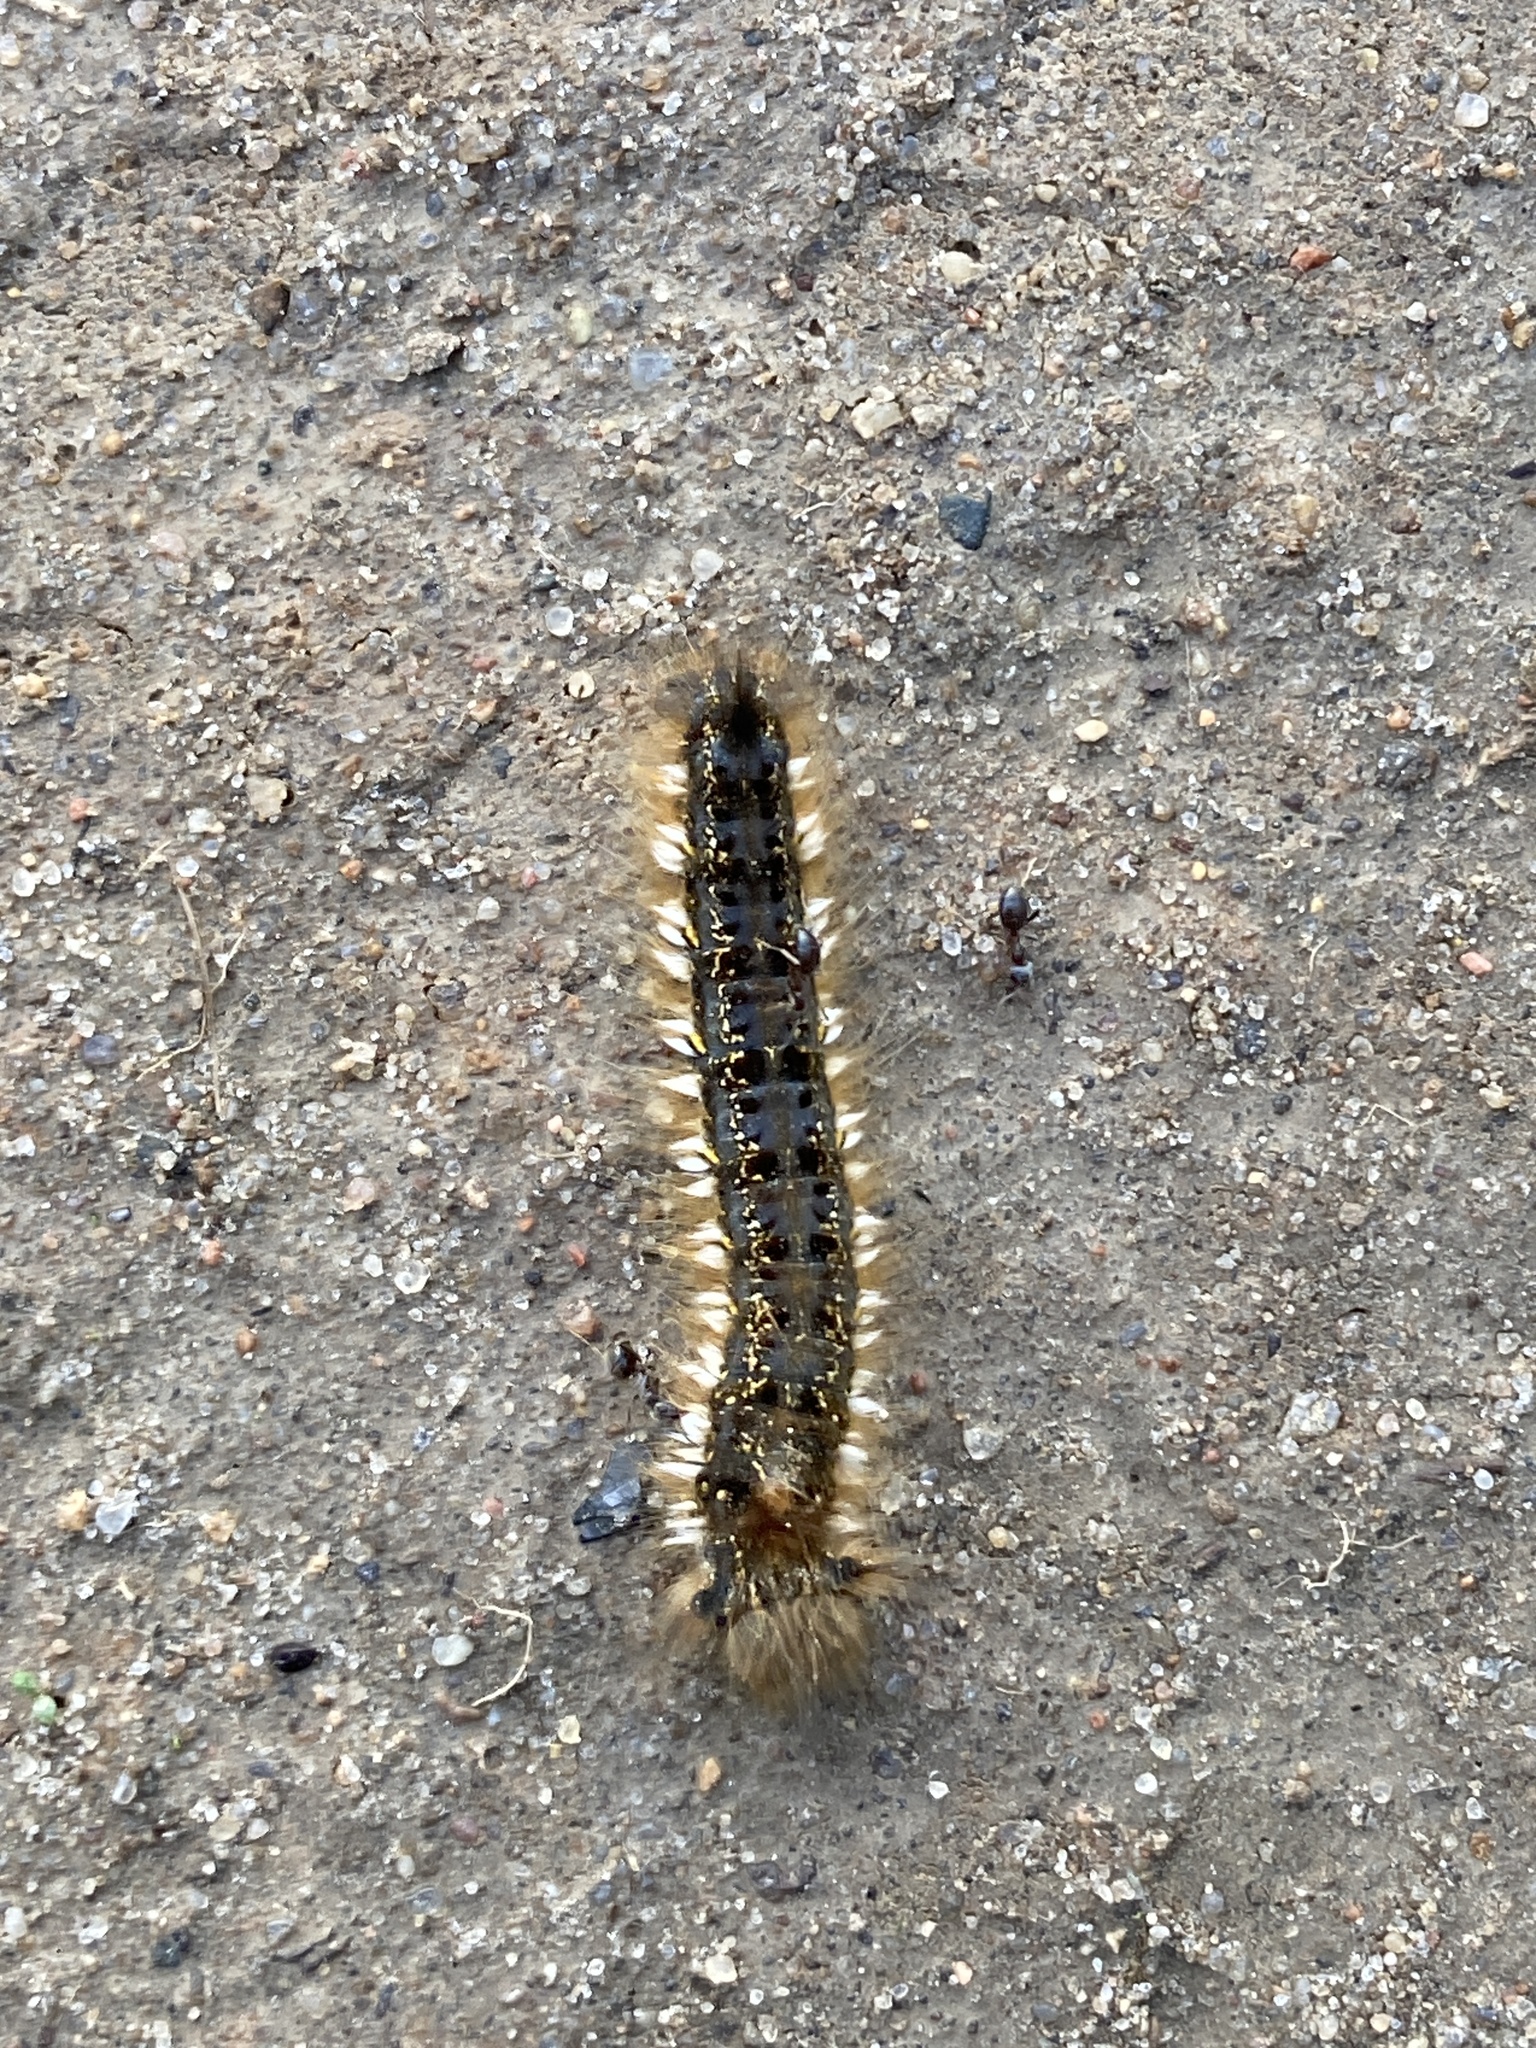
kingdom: Animalia
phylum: Arthropoda
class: Insecta
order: Lepidoptera
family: Lasiocampidae
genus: Euthrix
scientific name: Euthrix potatoria
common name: Drinker
